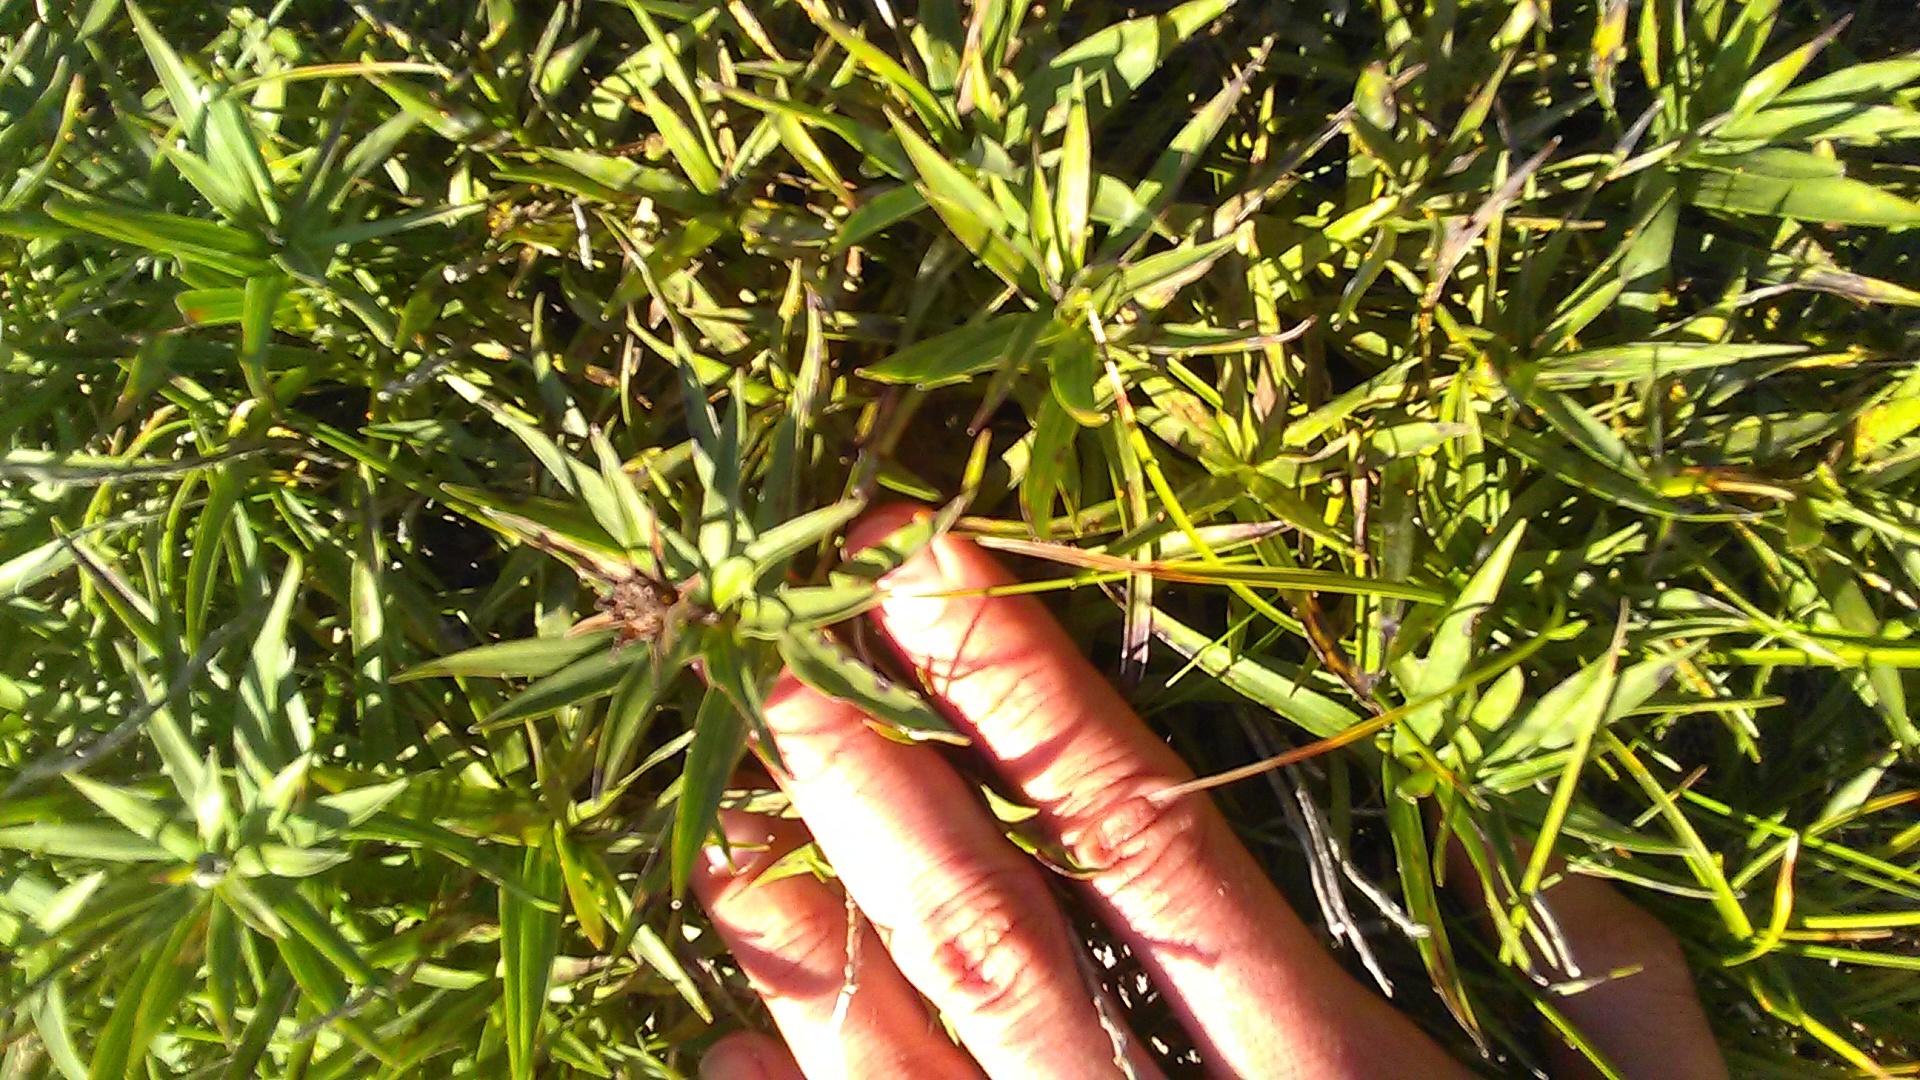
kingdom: Plantae
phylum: Tracheophyta
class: Magnoliopsida
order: Asterales
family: Asteraceae
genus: Pentanema
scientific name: Pentanema ensifolium
